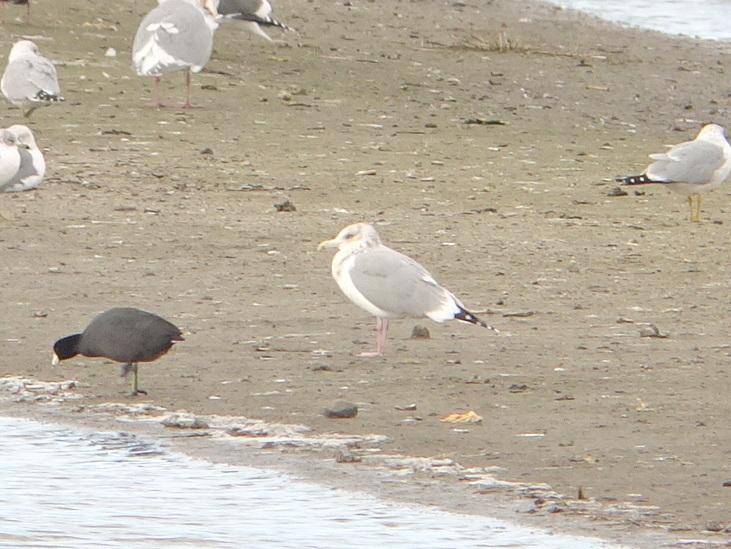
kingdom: Animalia
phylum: Chordata
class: Aves
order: Charadriiformes
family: Laridae
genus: Larus
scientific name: Larus argentatus
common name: Herring gull
